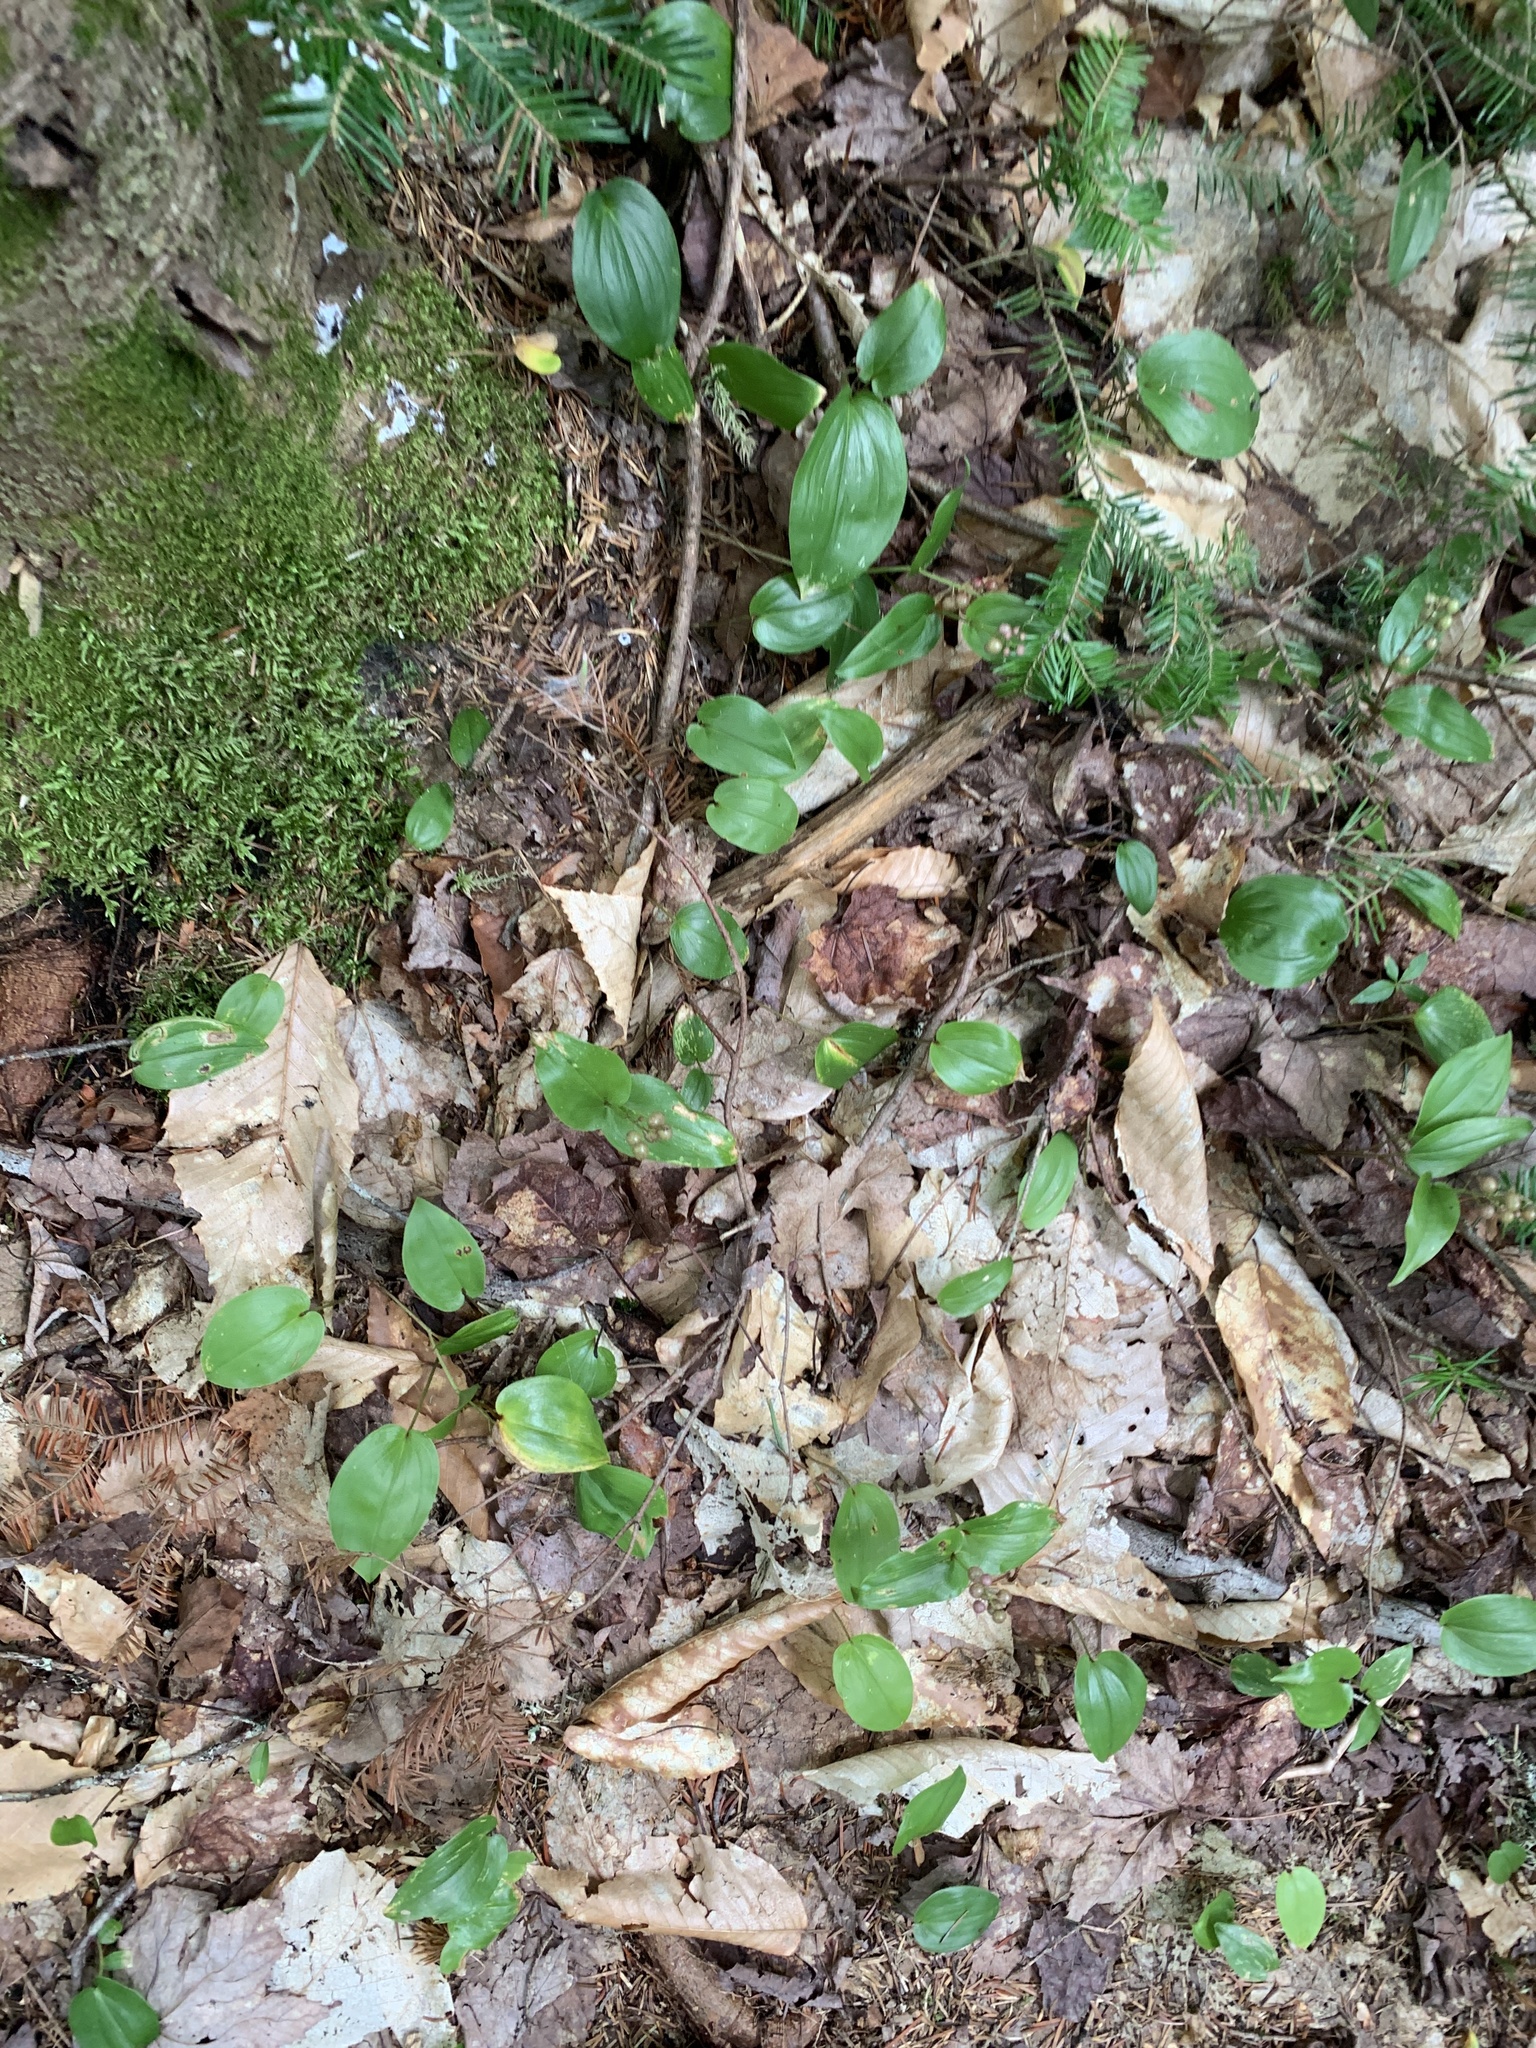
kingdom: Plantae
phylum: Tracheophyta
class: Liliopsida
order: Asparagales
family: Asparagaceae
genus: Maianthemum
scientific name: Maianthemum canadense
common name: False lily-of-the-valley
